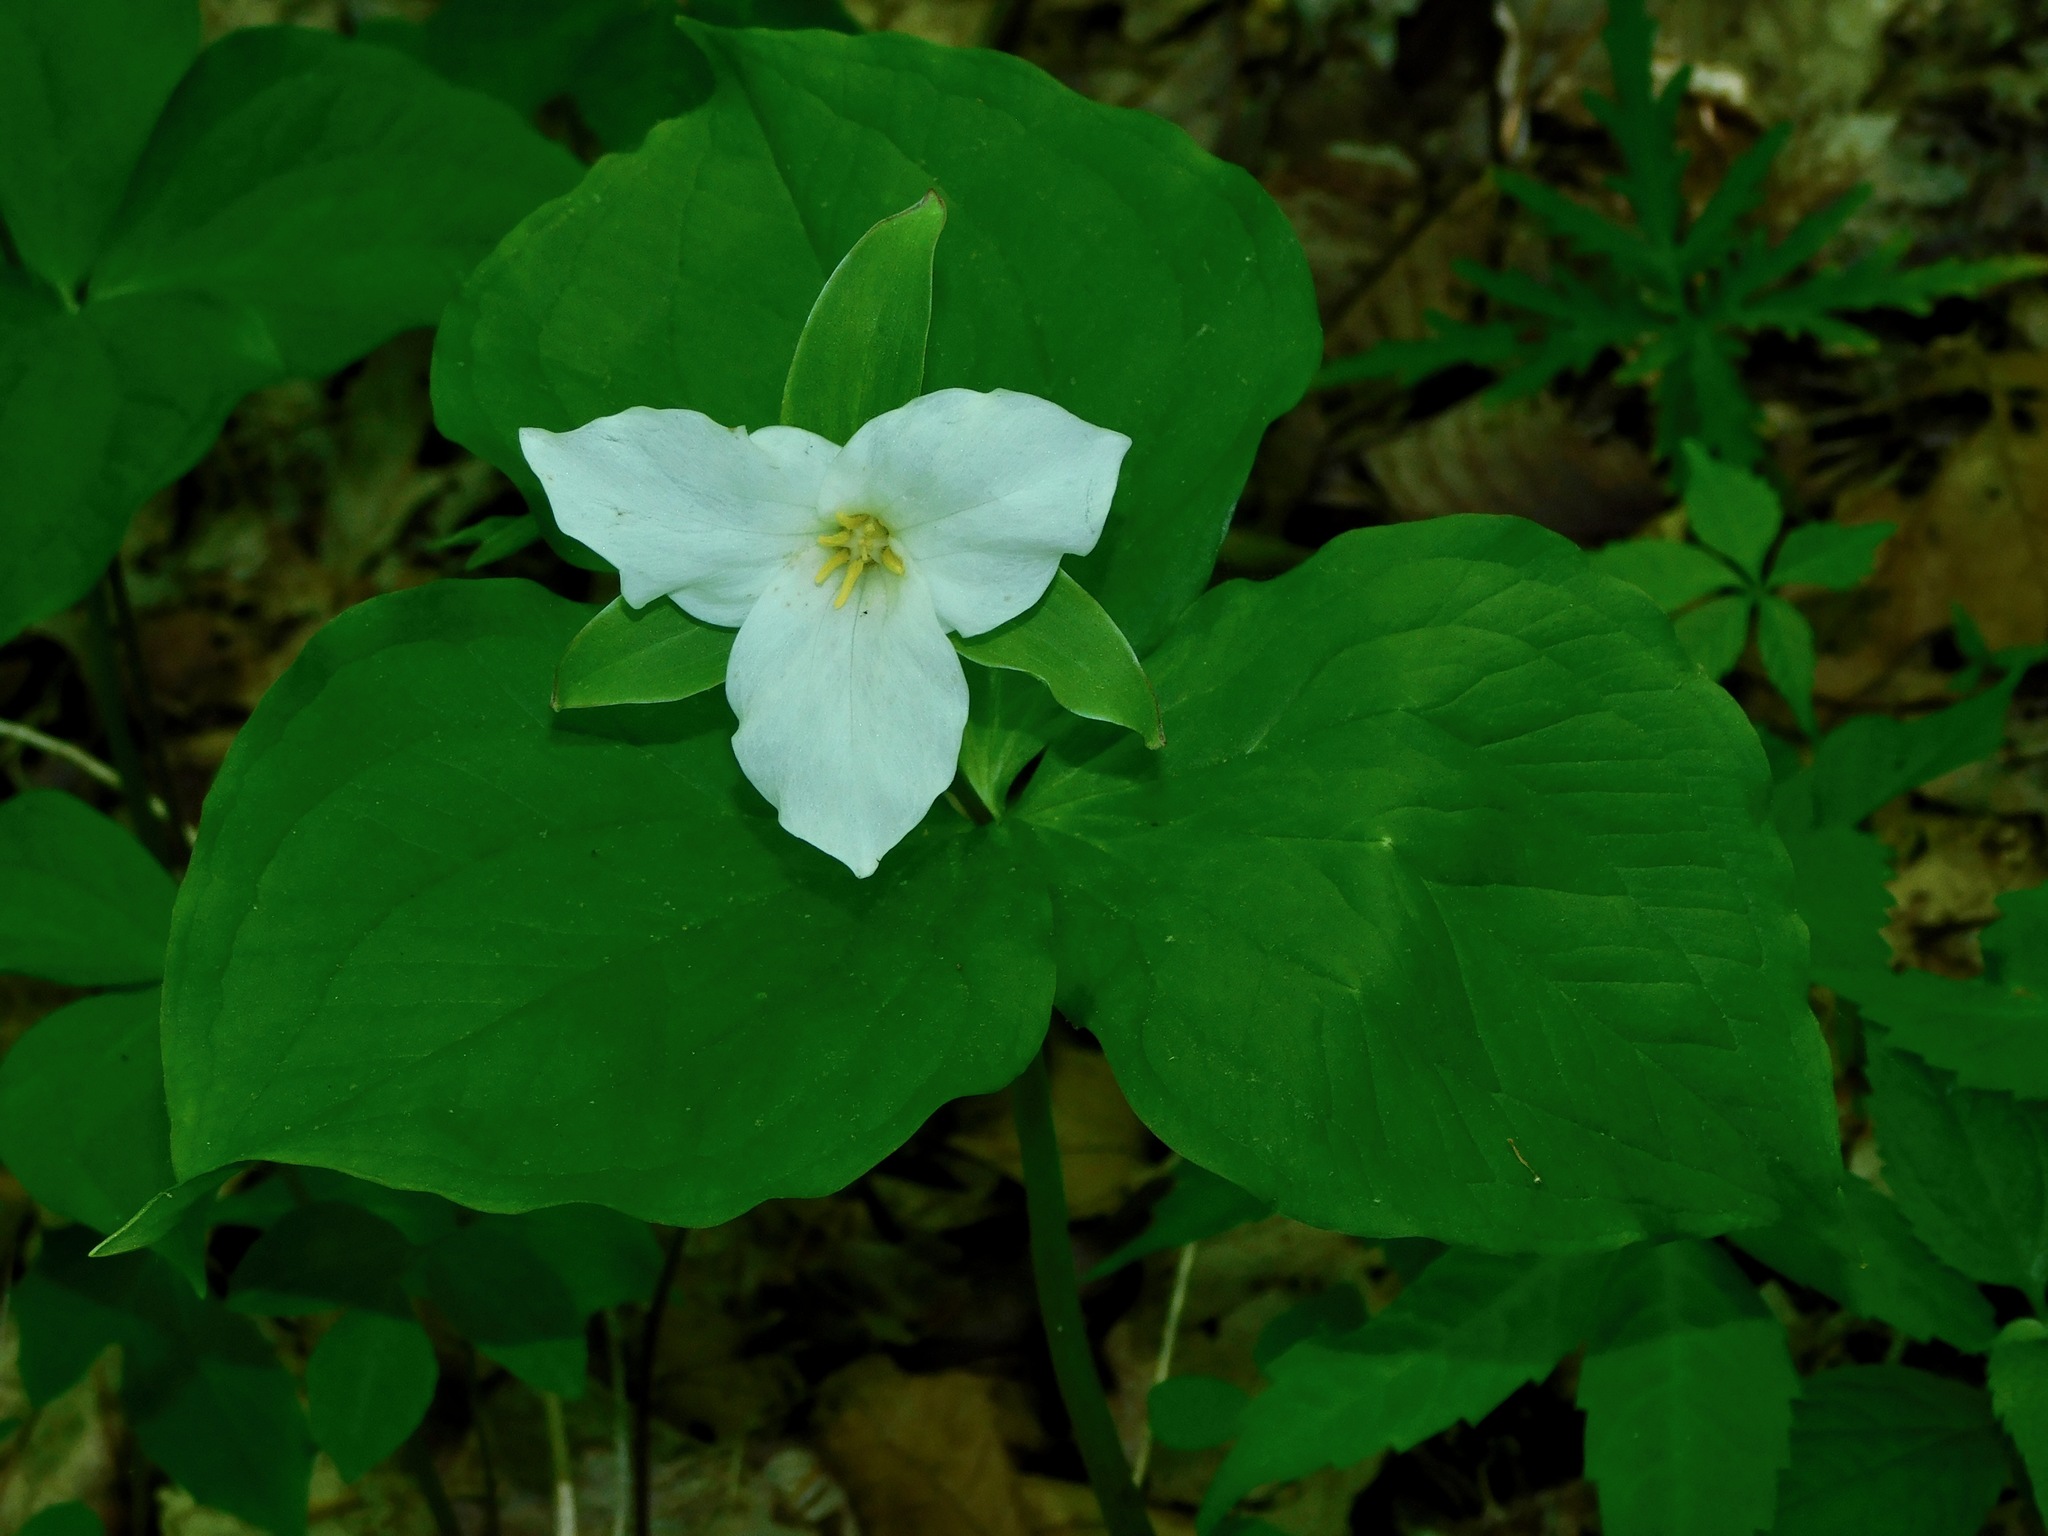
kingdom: Plantae
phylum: Tracheophyta
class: Liliopsida
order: Liliales
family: Melanthiaceae
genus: Trillium
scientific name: Trillium grandiflorum
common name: Great white trillium
